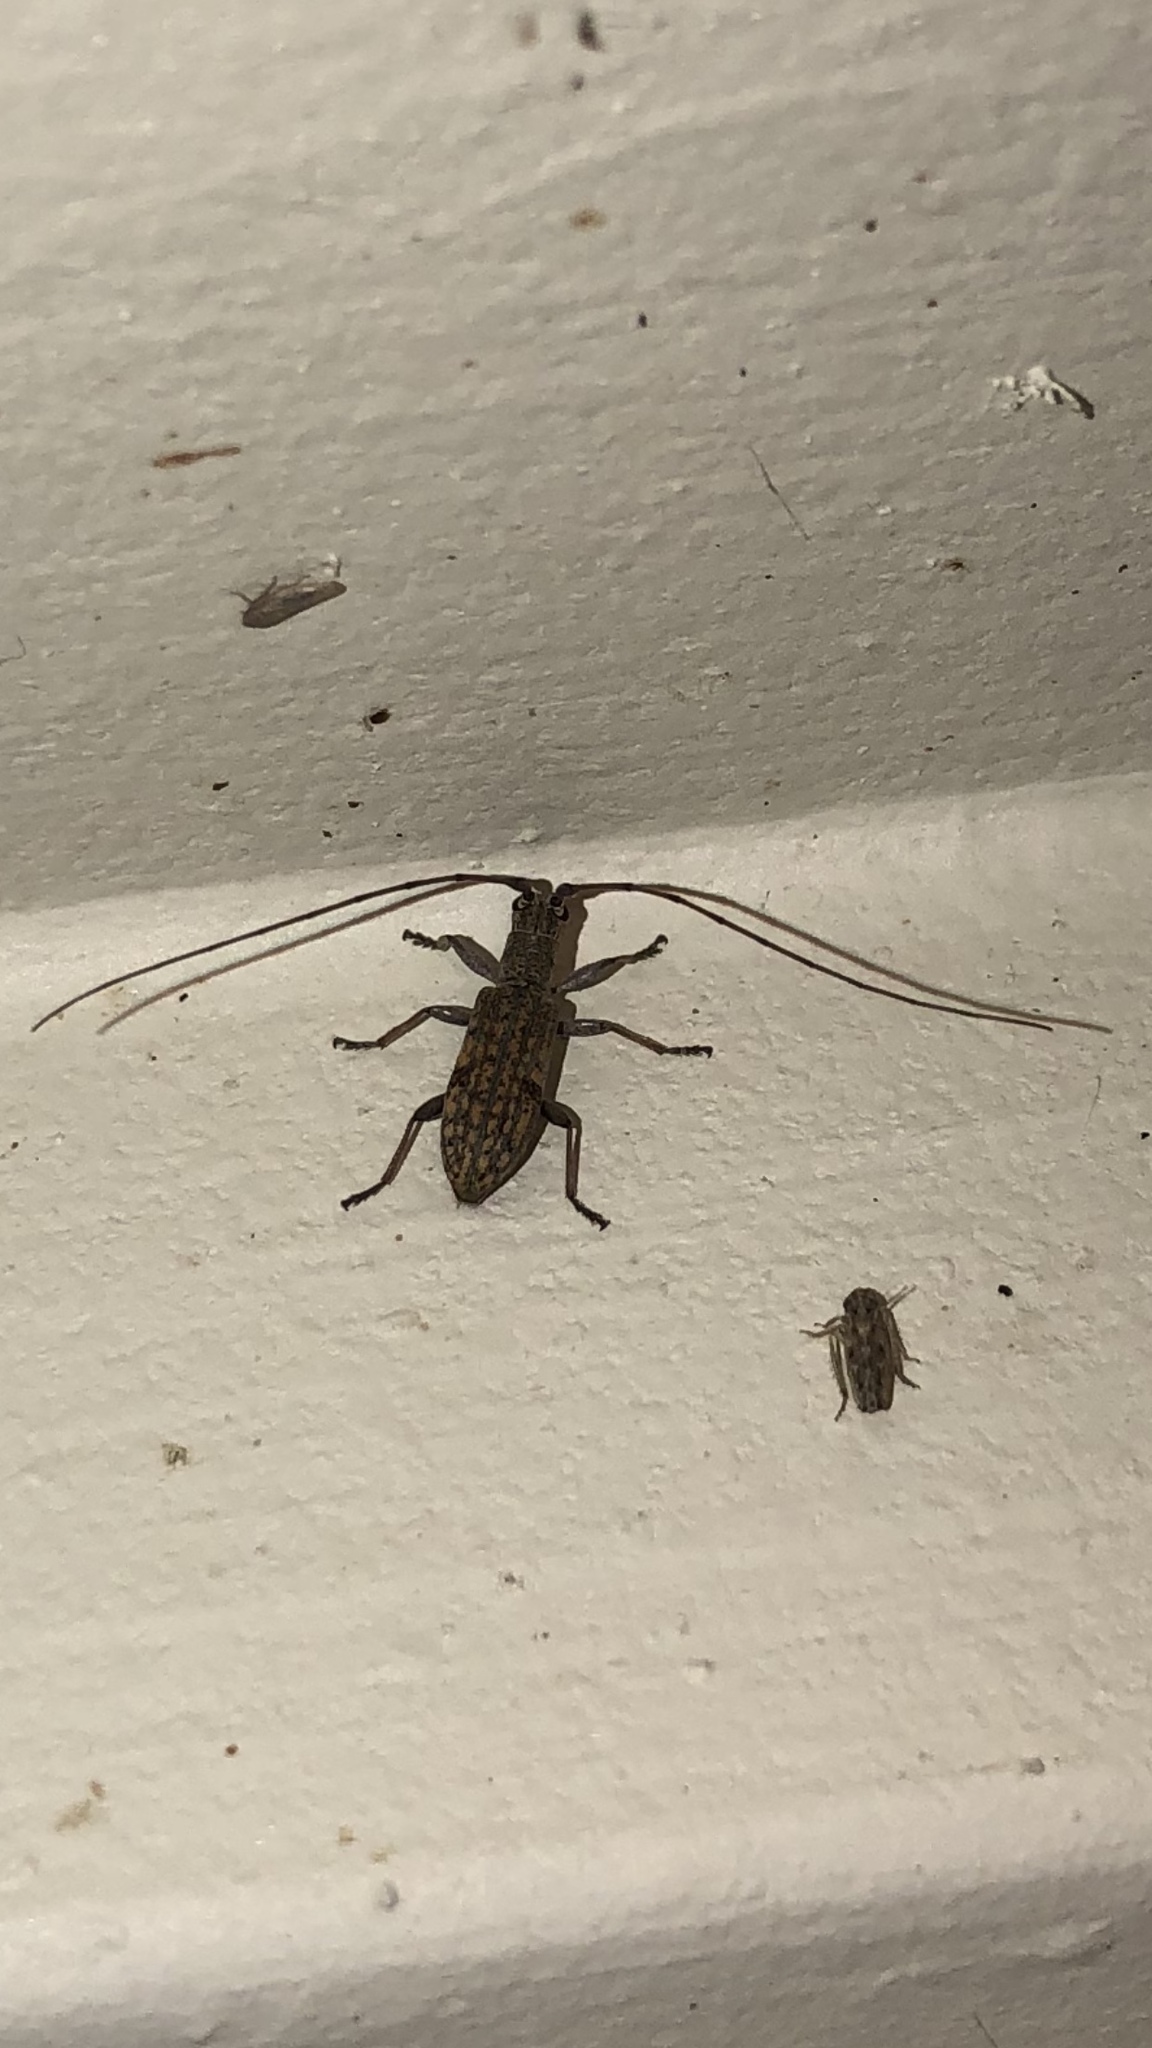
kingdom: Animalia
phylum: Arthropoda
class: Insecta
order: Coleoptera
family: Cerambycidae
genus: Dorcaschema
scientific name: Dorcaschema alternatum
